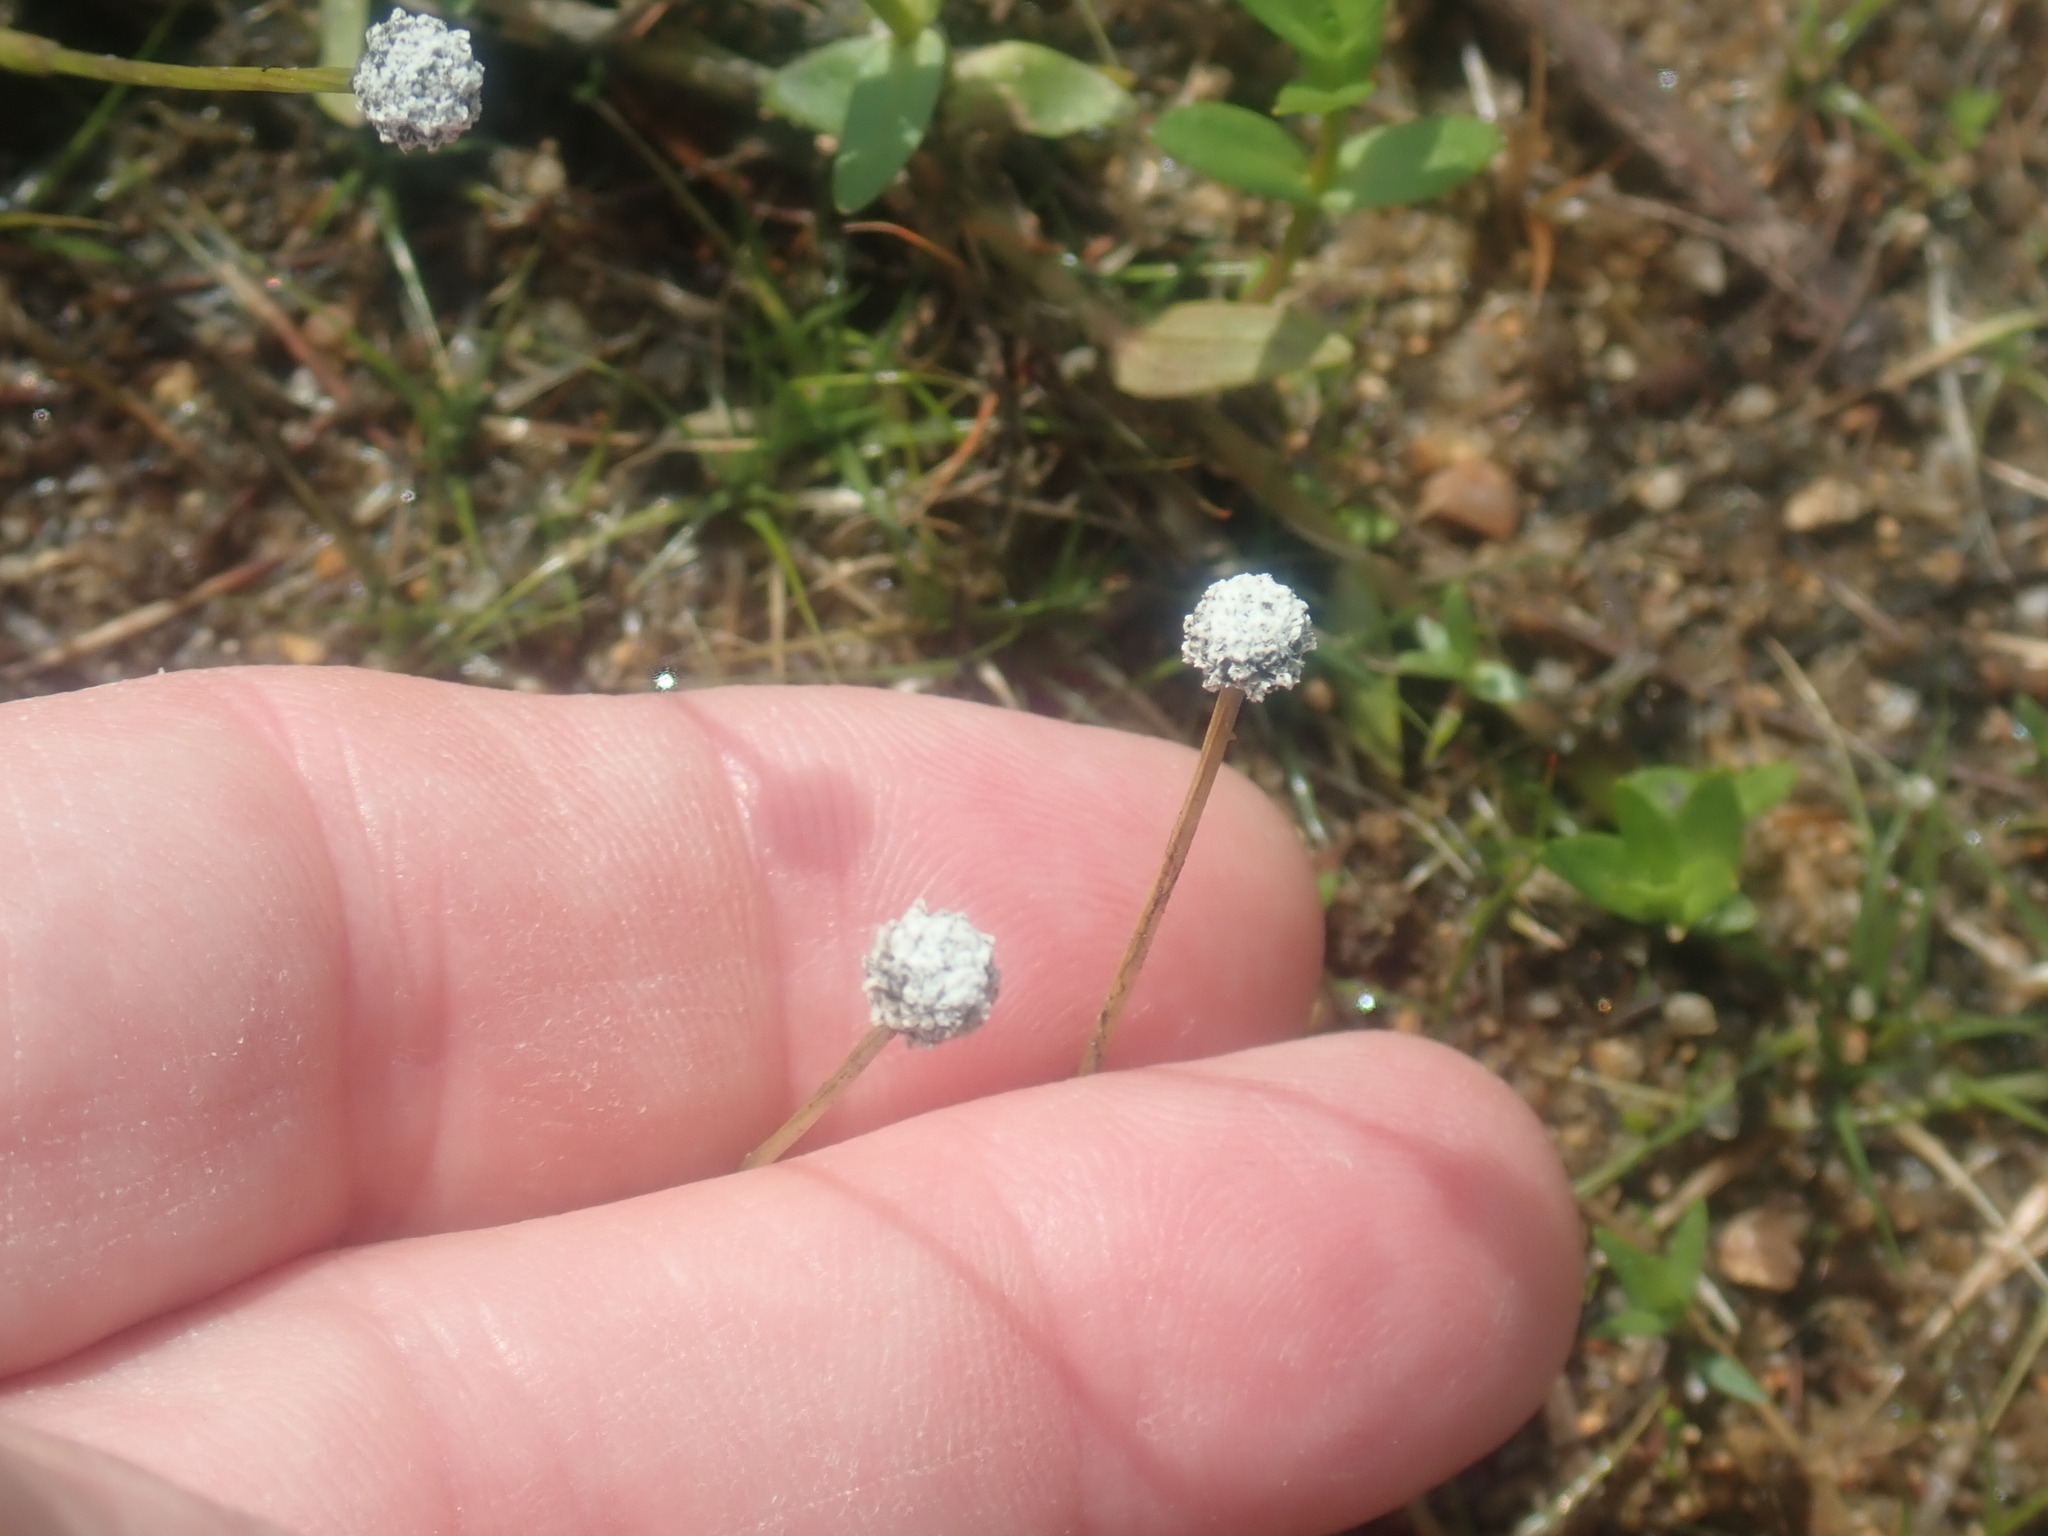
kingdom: Plantae
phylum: Tracheophyta
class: Liliopsida
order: Poales
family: Eriocaulaceae
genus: Eriocaulon
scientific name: Eriocaulon aquaticum
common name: Pipewort
